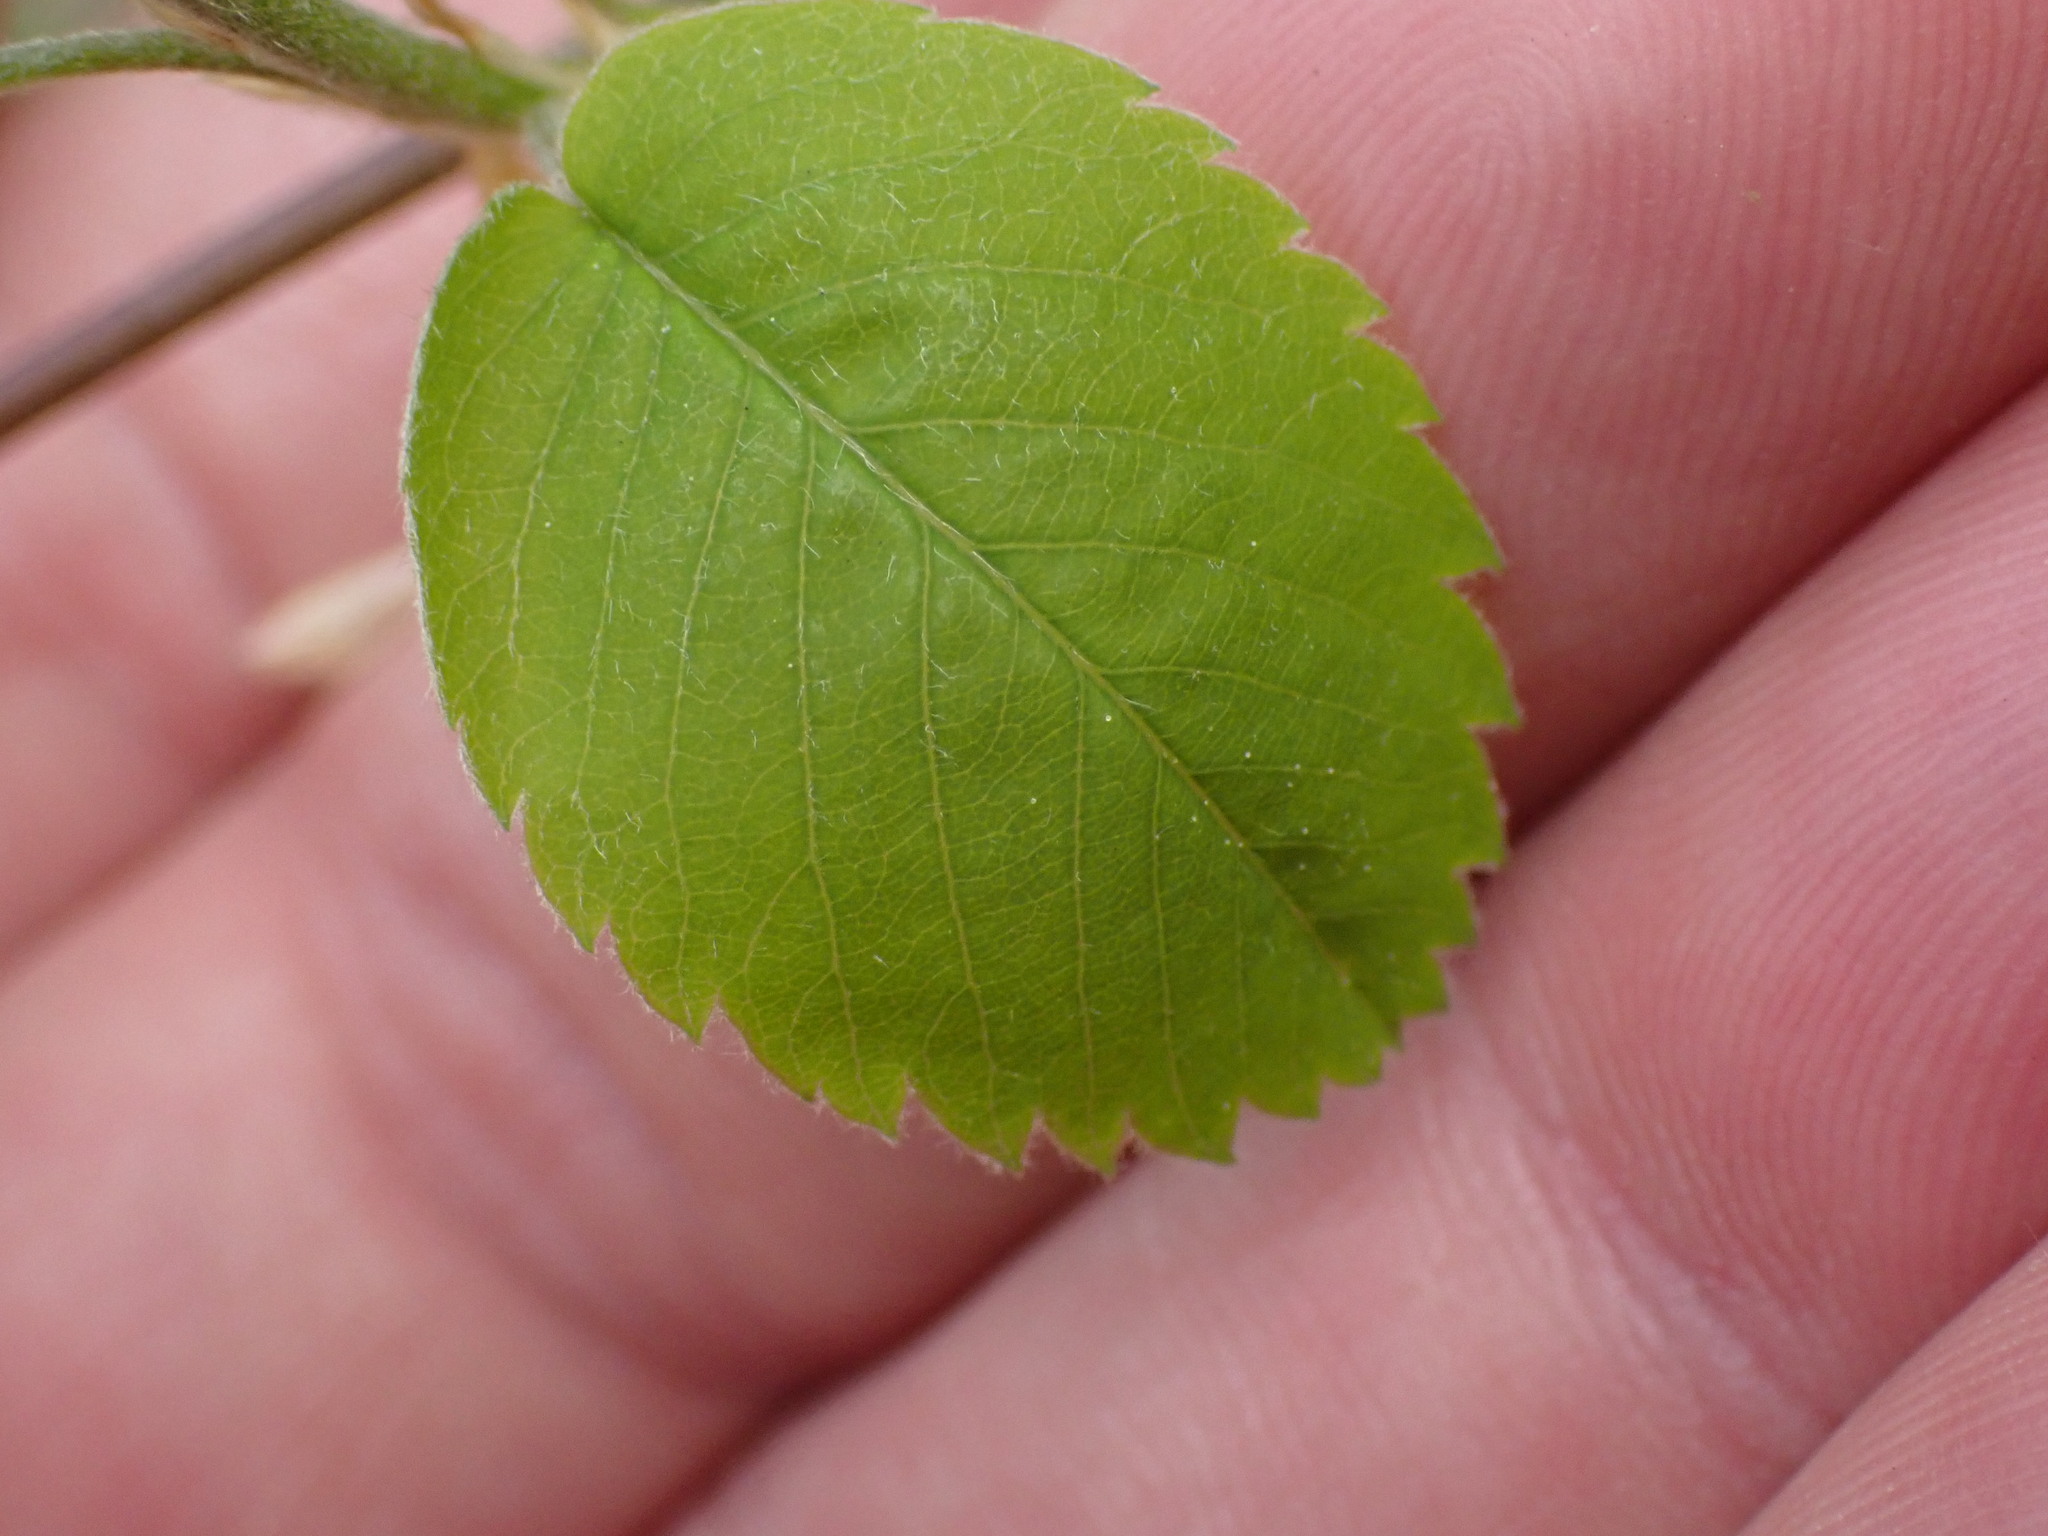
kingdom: Plantae
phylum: Tracheophyta
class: Magnoliopsida
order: Rosales
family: Rosaceae
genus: Amelanchier
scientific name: Amelanchier alnifolia
